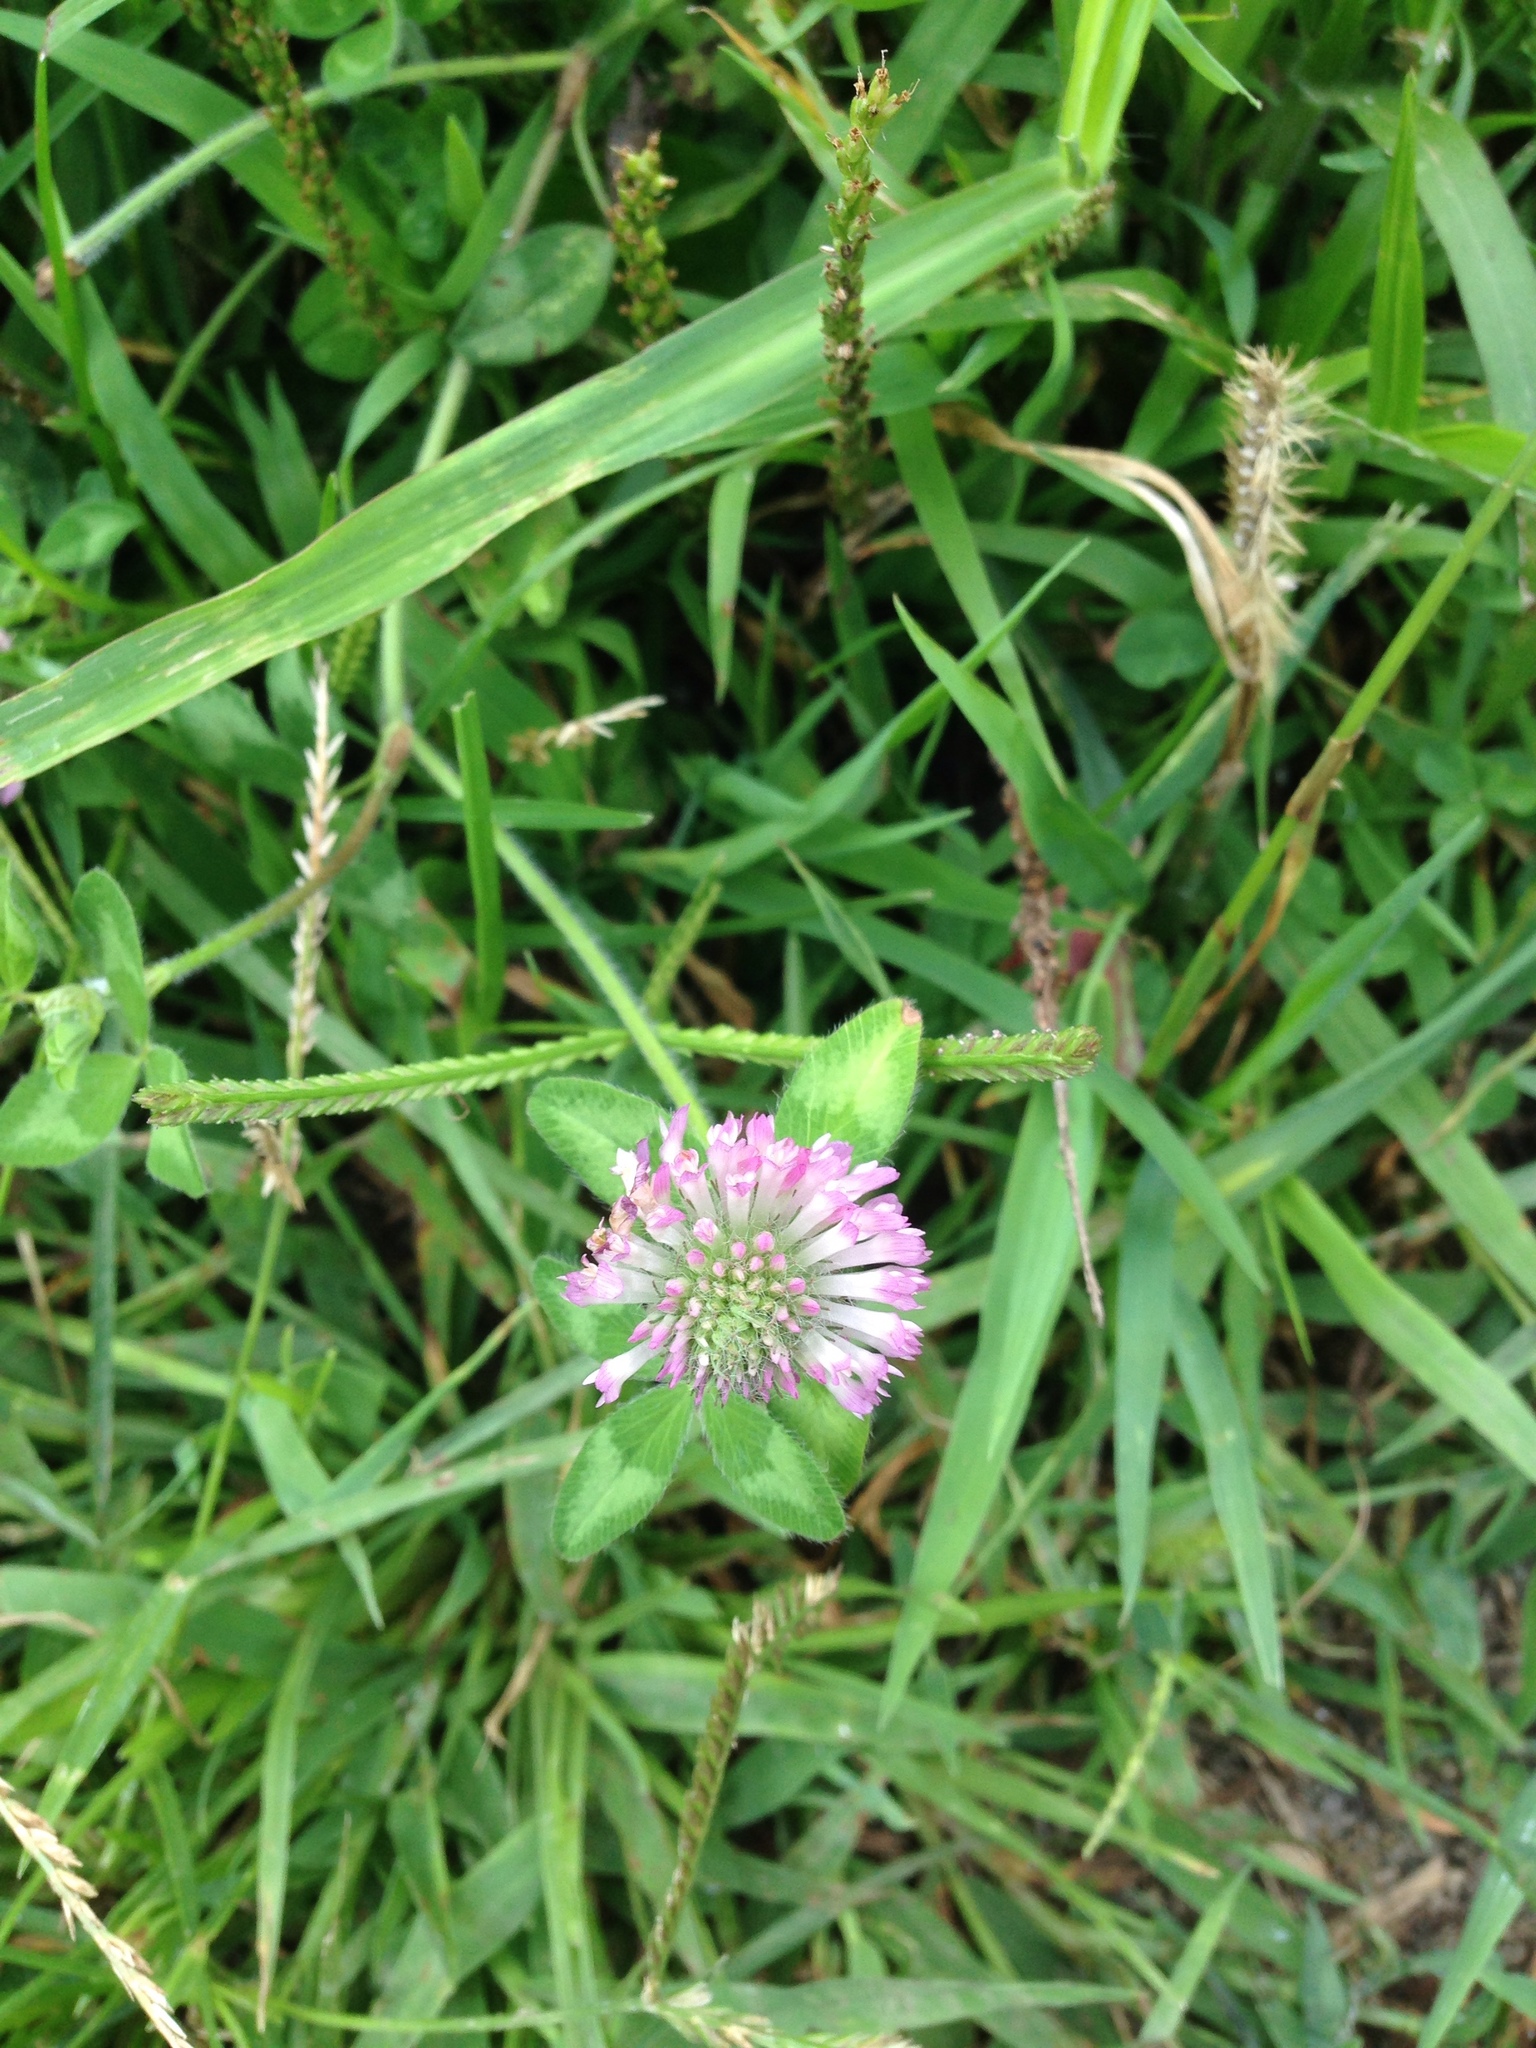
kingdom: Plantae
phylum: Tracheophyta
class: Magnoliopsida
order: Fabales
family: Fabaceae
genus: Trifolium
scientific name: Trifolium pratense
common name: Red clover
